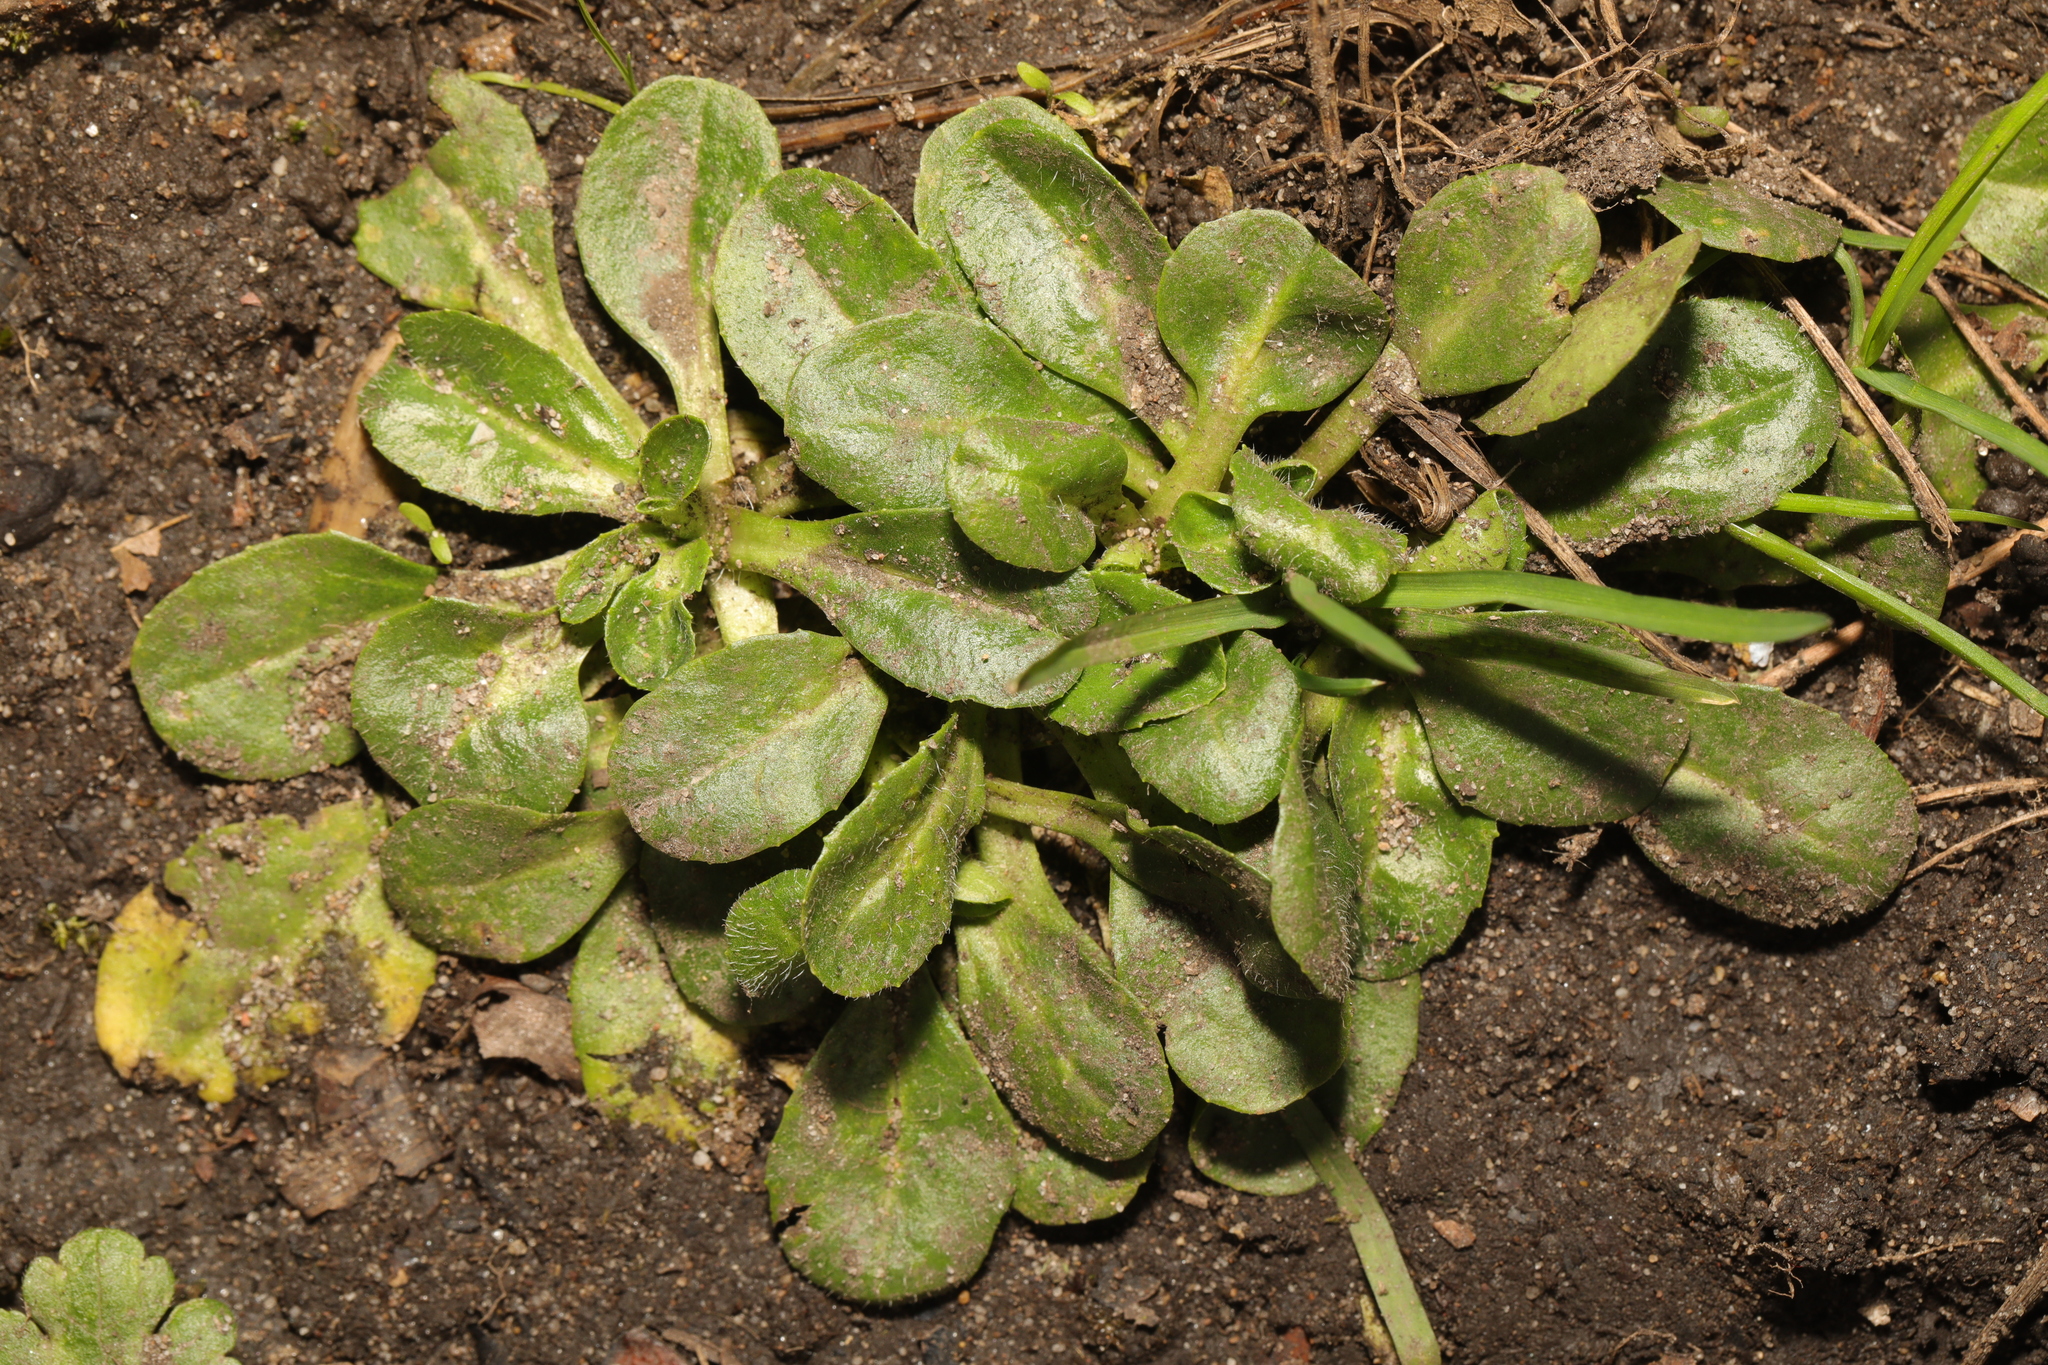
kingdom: Plantae
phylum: Tracheophyta
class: Magnoliopsida
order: Asterales
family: Asteraceae
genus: Bellis
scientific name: Bellis perennis
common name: Lawndaisy
